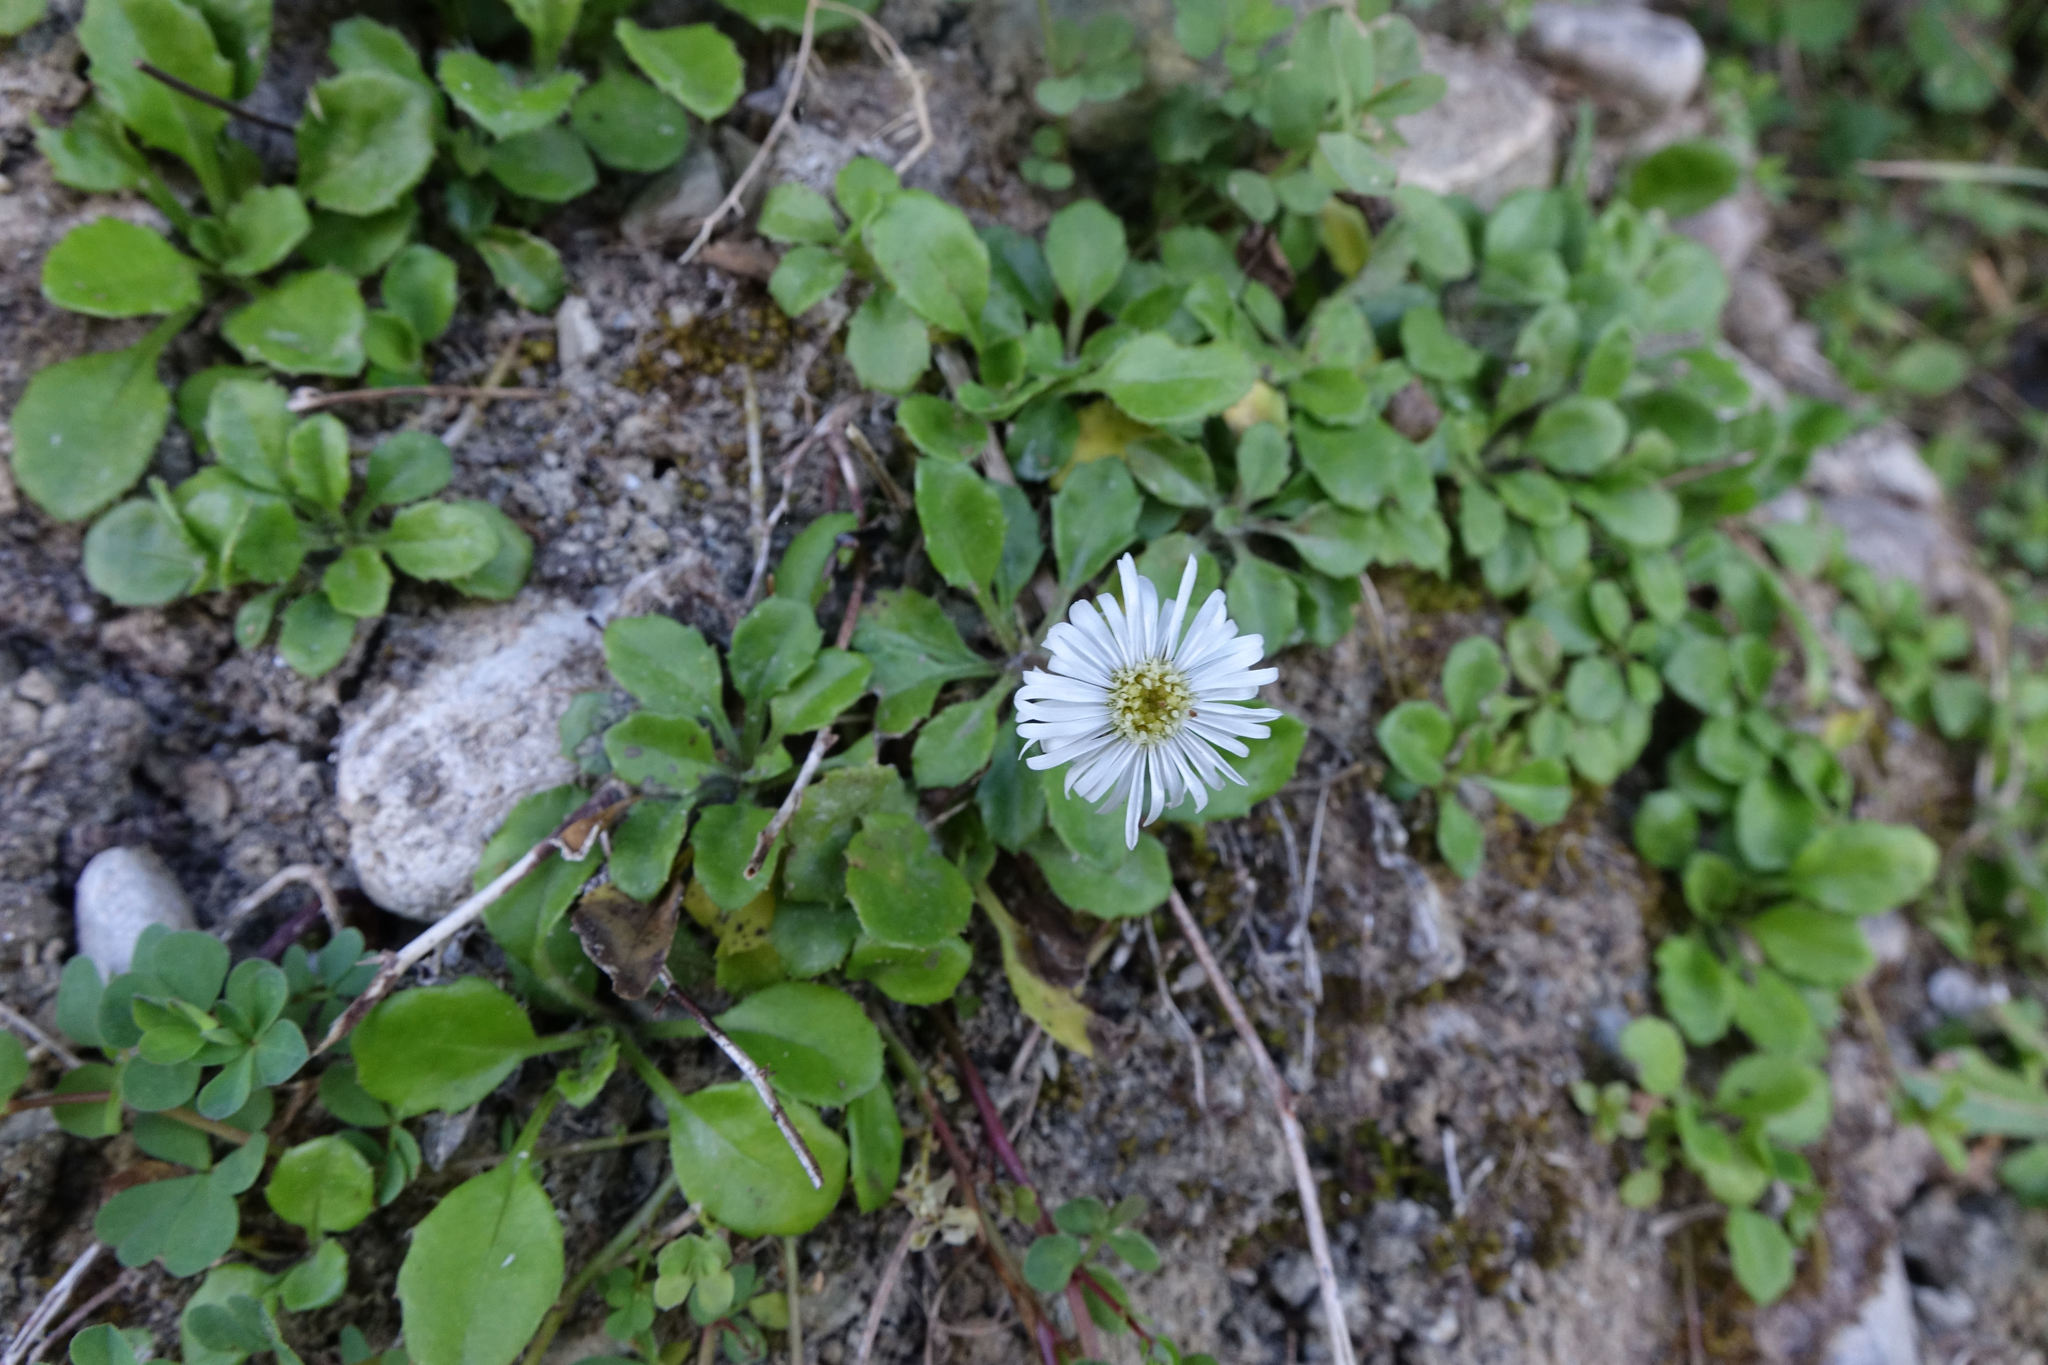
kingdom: Plantae
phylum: Tracheophyta
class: Magnoliopsida
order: Asterales
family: Asteraceae
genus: Lagenophora
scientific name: Lagenophora pumila
